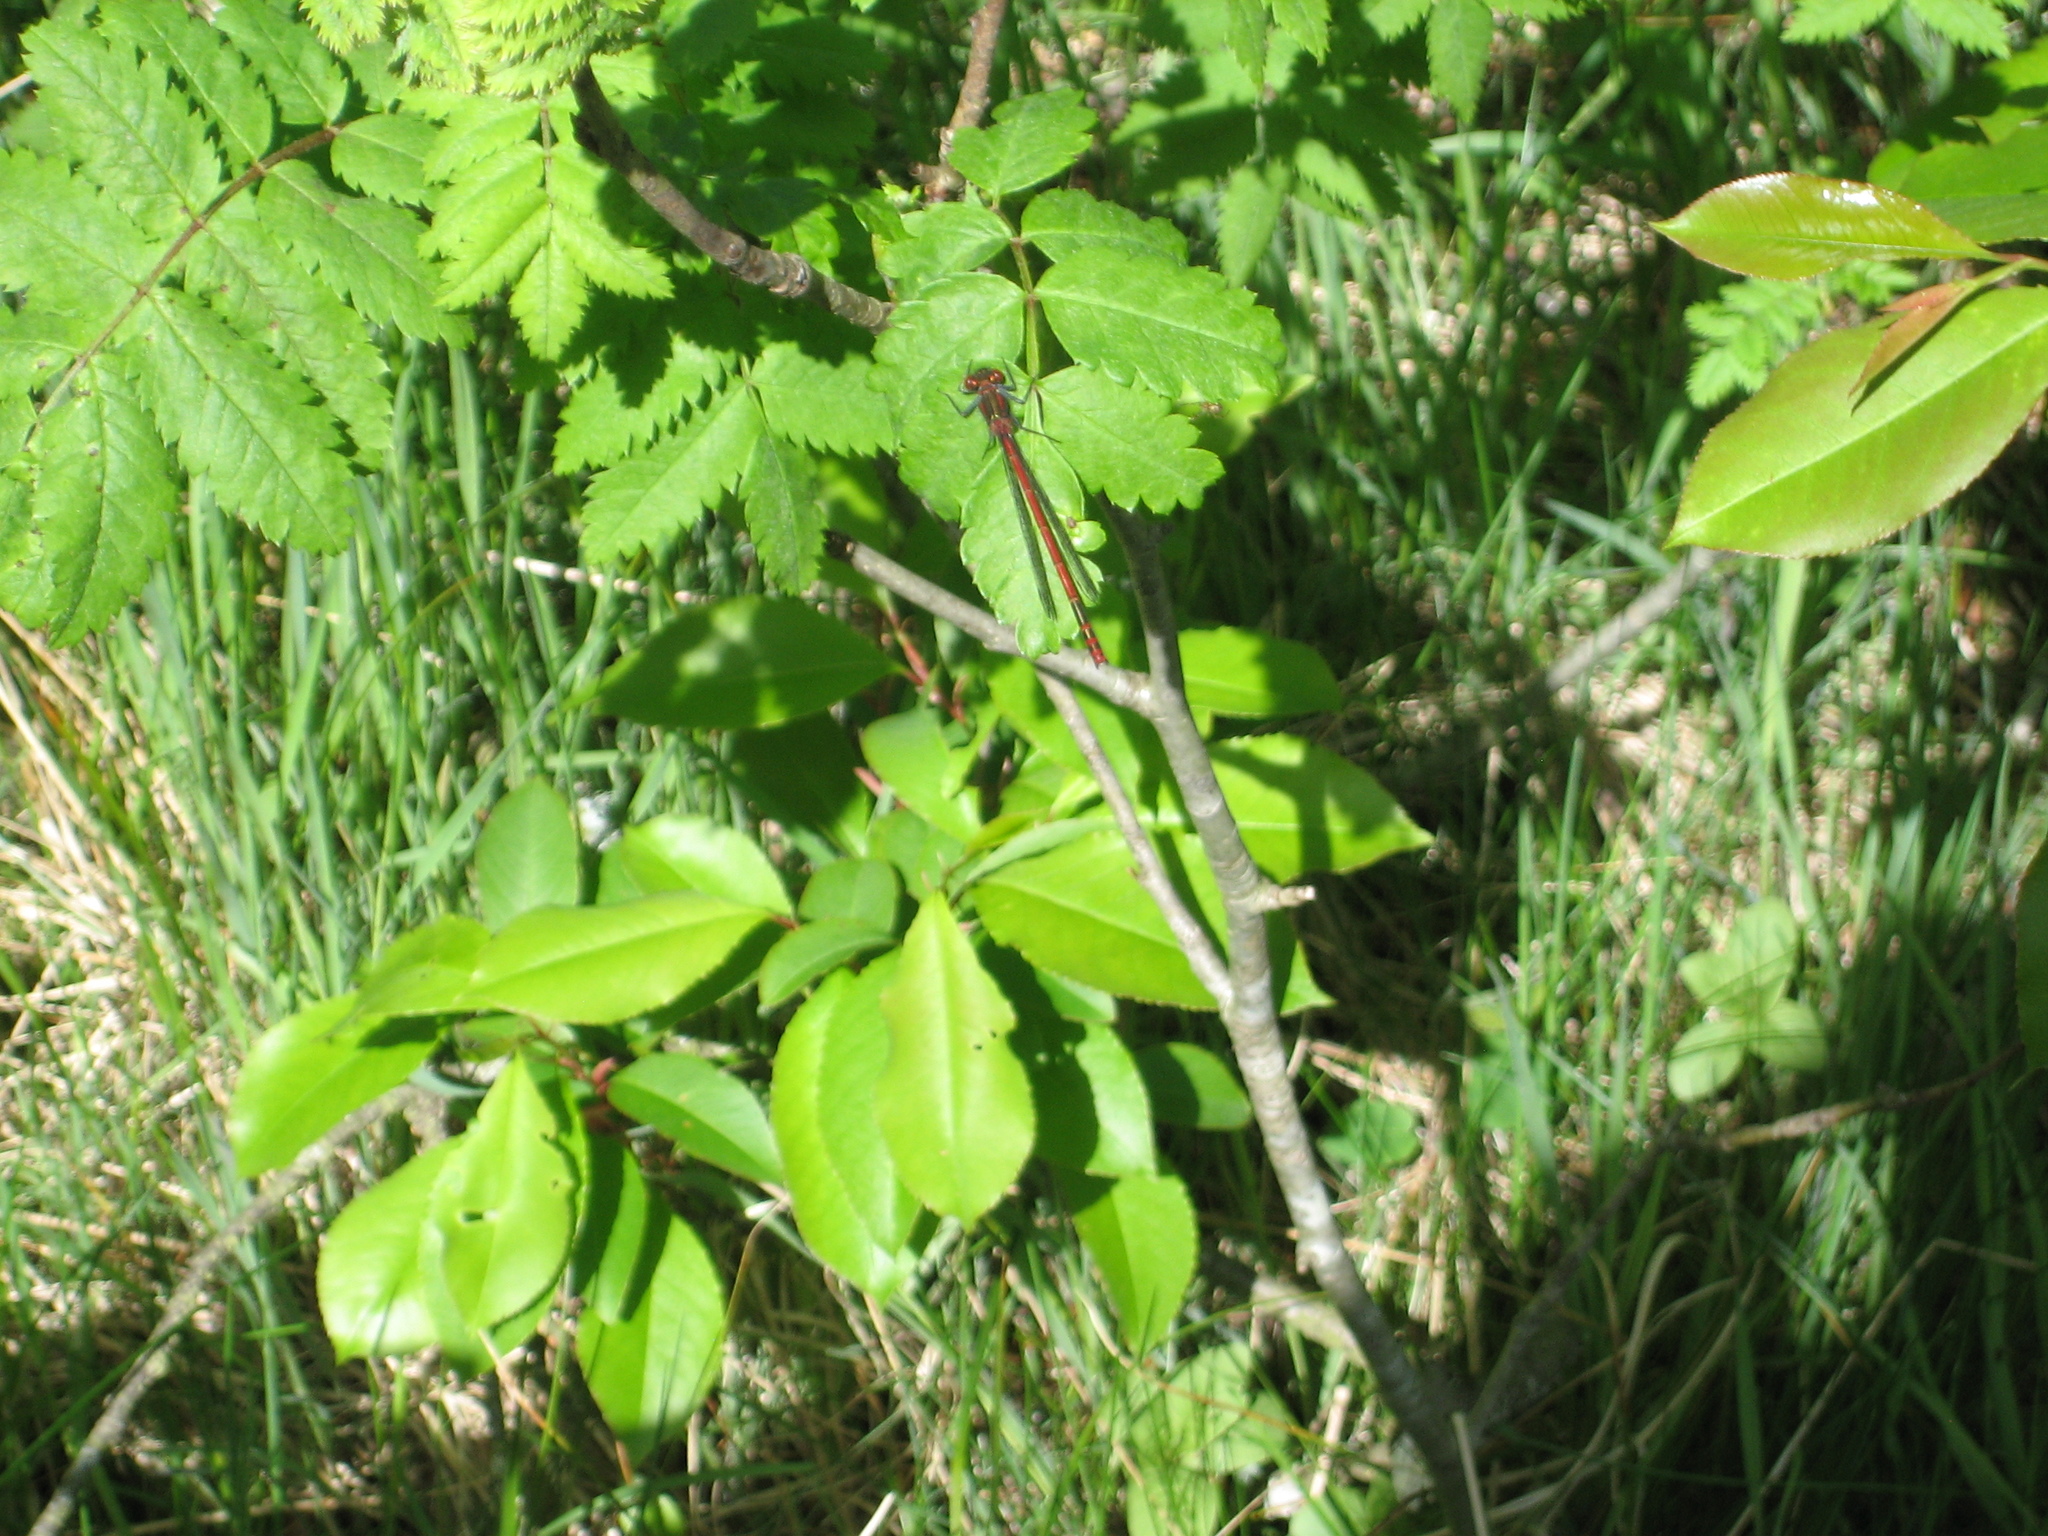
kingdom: Animalia
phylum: Arthropoda
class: Insecta
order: Odonata
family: Coenagrionidae
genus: Pyrrhosoma
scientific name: Pyrrhosoma nymphula
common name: Large red damsel
